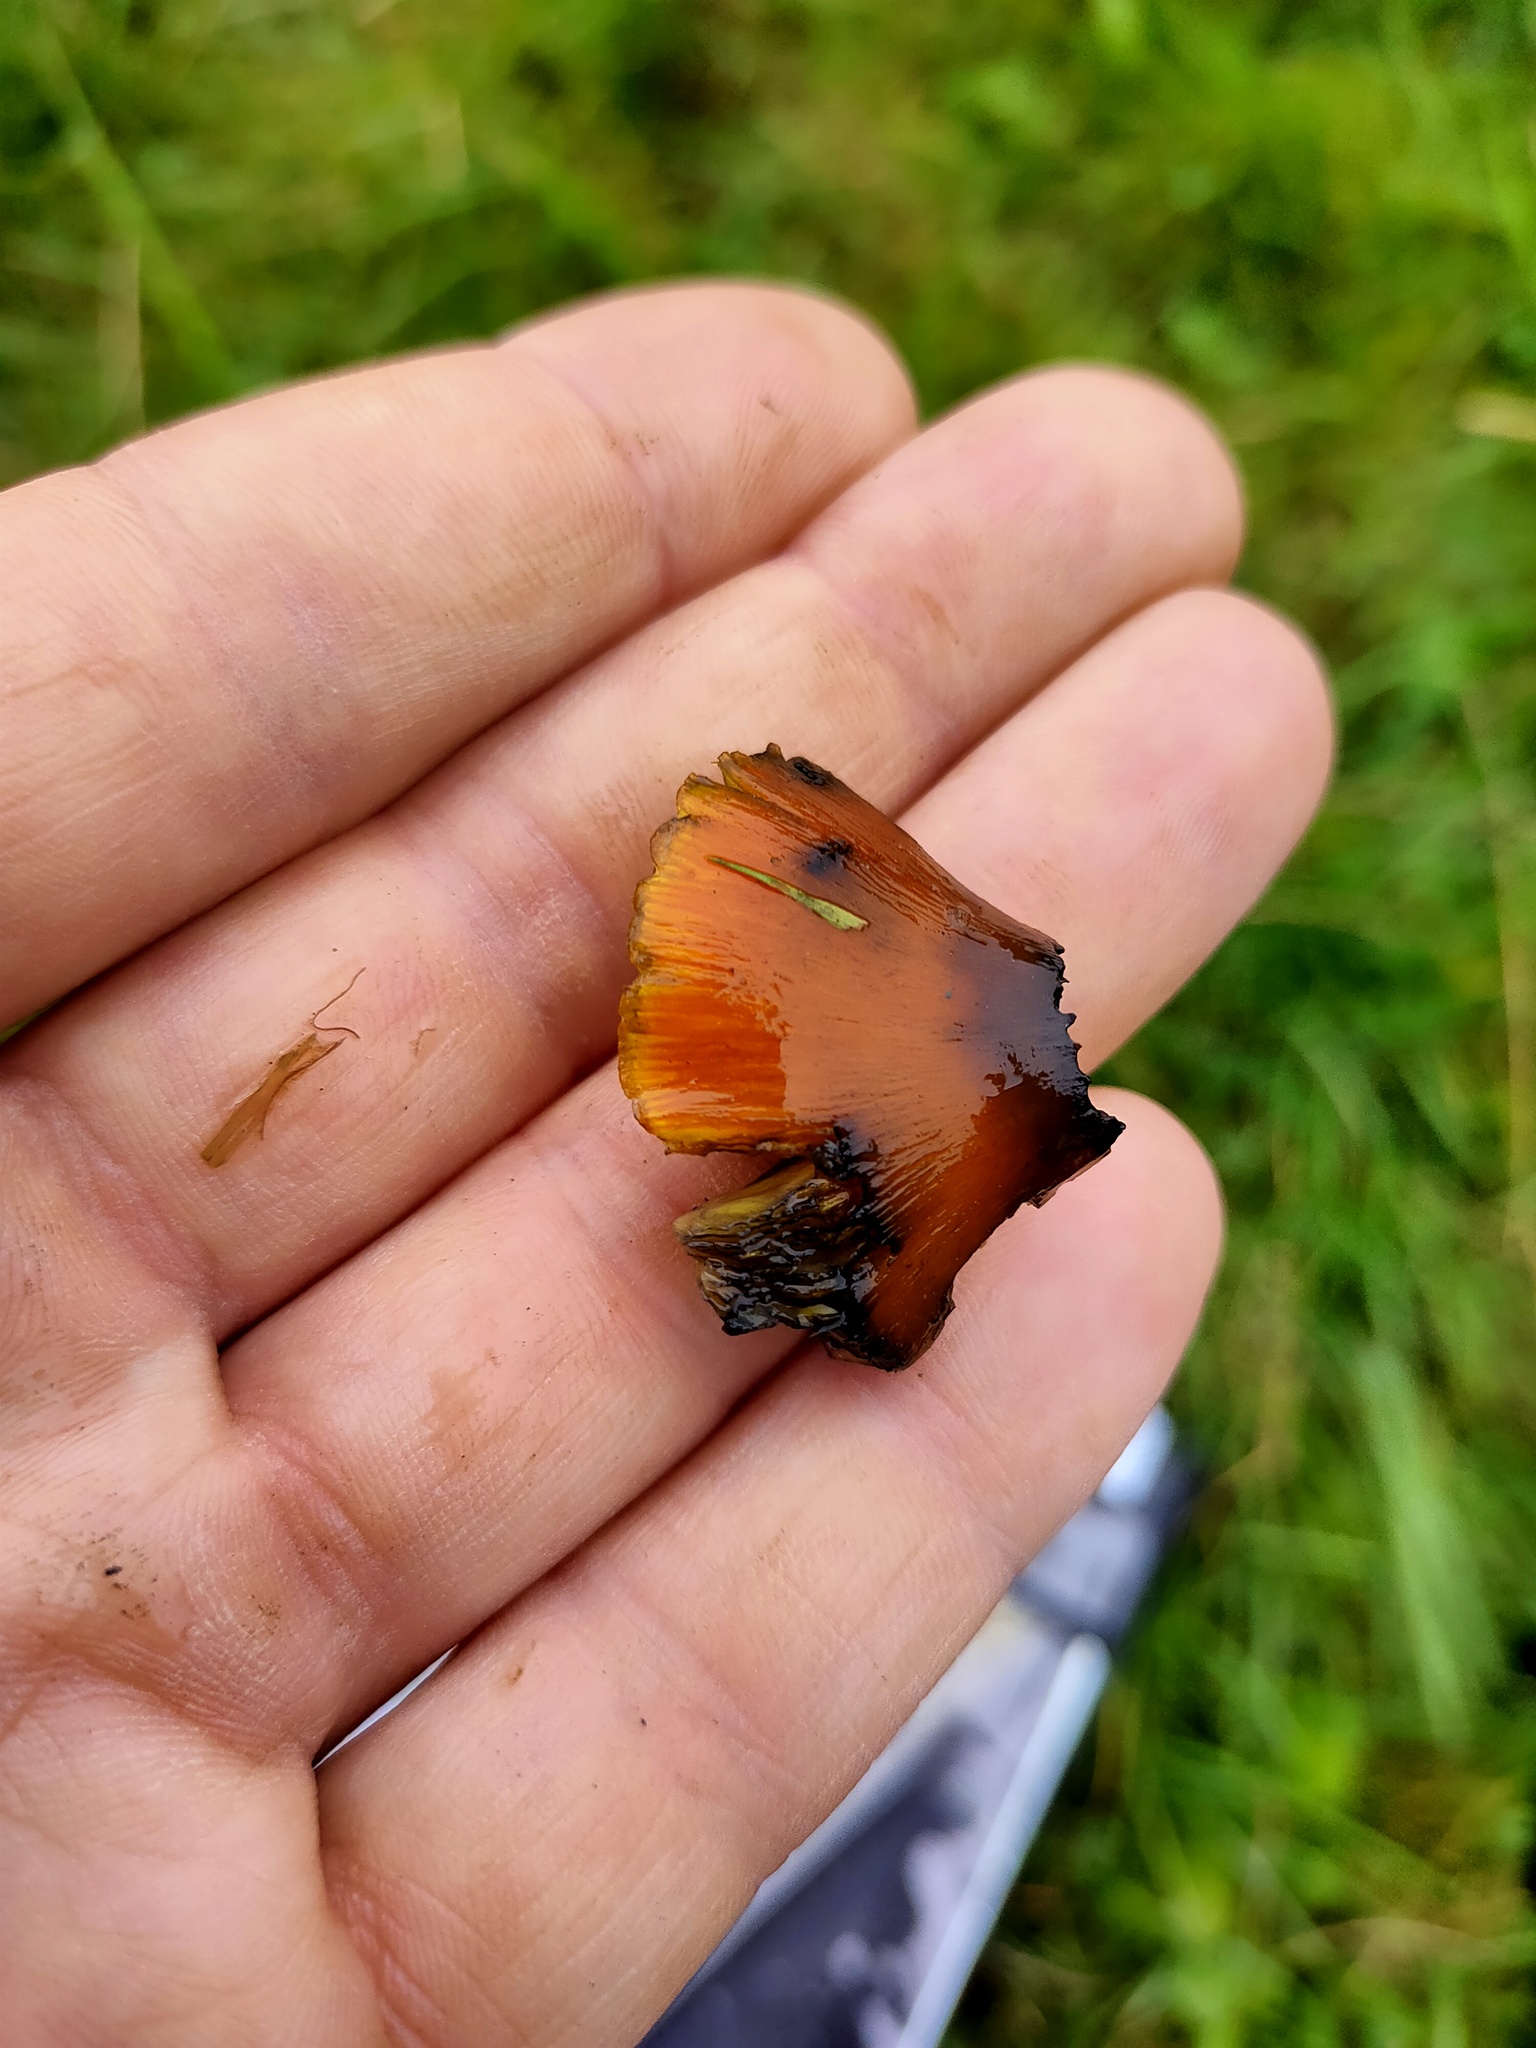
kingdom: Fungi
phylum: Basidiomycota
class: Agaricomycetes
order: Agaricales
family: Hygrophoraceae
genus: Hygrocybe
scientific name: Hygrocybe conica
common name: Blackening wax-cap
